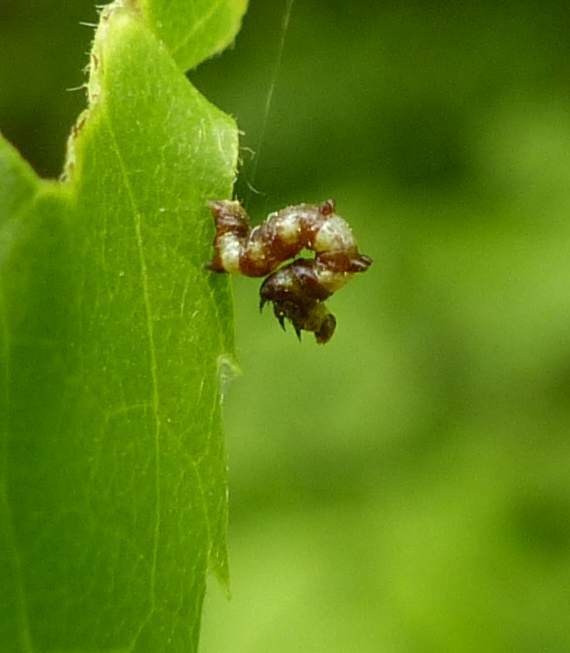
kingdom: Animalia
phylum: Arthropoda
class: Insecta
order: Lepidoptera
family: Geometridae
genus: Nematocampa
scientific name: Nematocampa resistaria
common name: Horned spanworm moth
